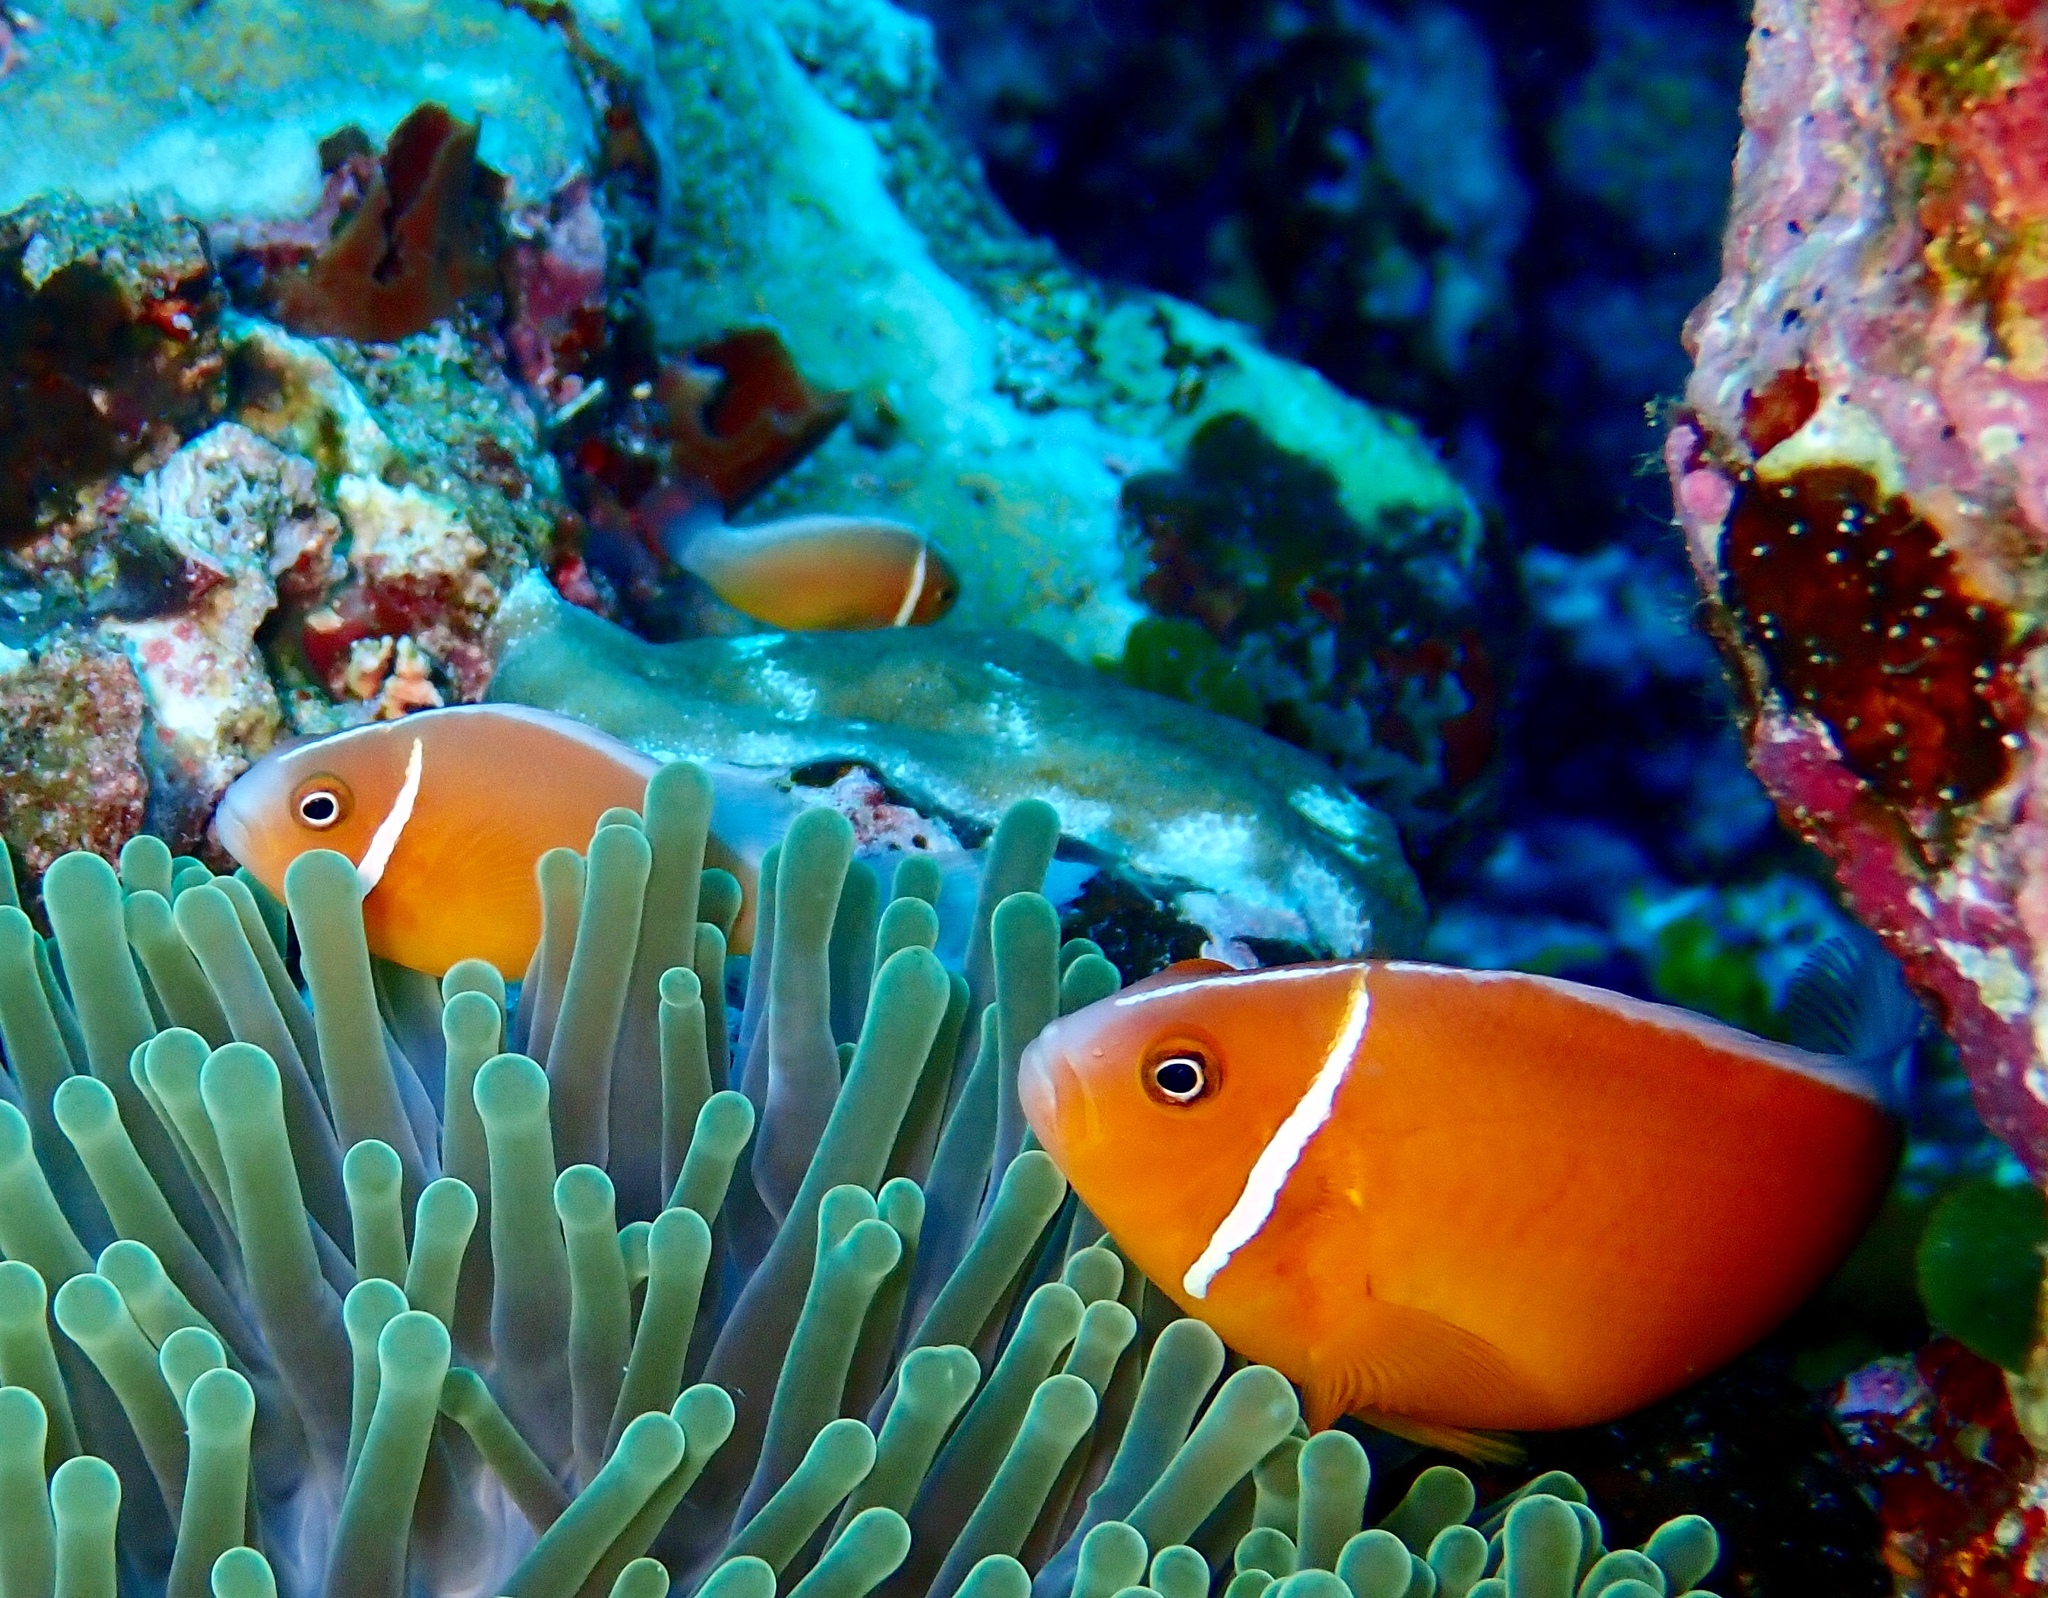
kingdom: Animalia
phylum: Chordata
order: Perciformes
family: Pomacentridae
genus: Amphiprion
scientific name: Amphiprion perideraion
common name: Pink anemonefish
